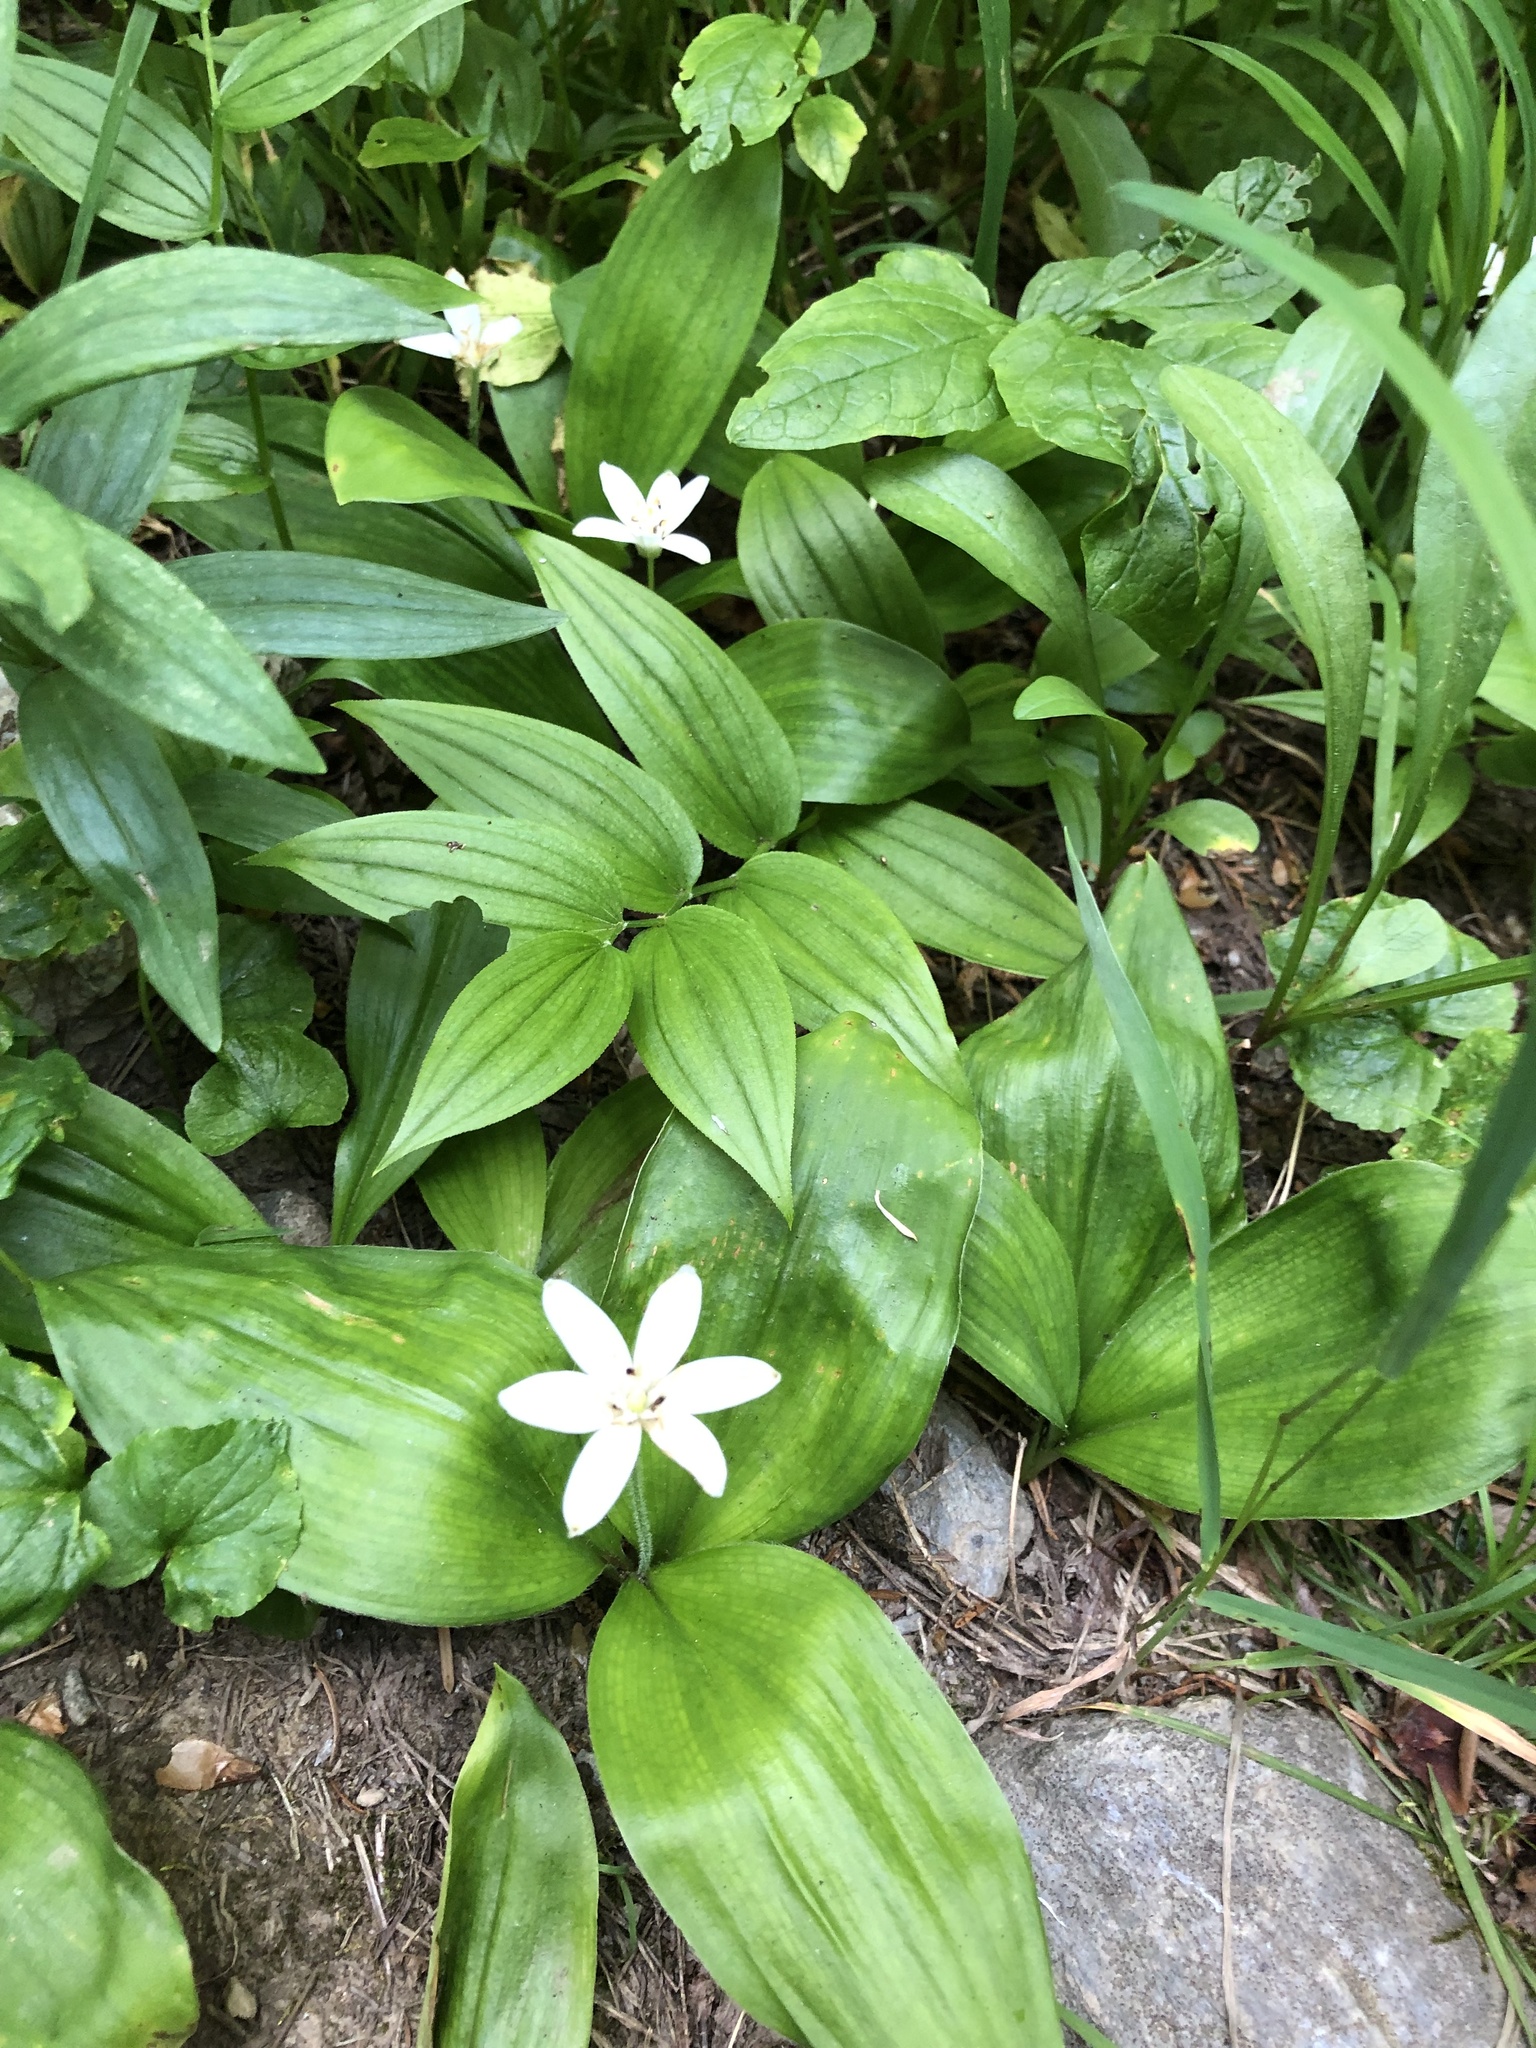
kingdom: Plantae
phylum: Tracheophyta
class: Liliopsida
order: Liliales
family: Liliaceae
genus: Clintonia
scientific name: Clintonia uniflora
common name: Queen's cup
